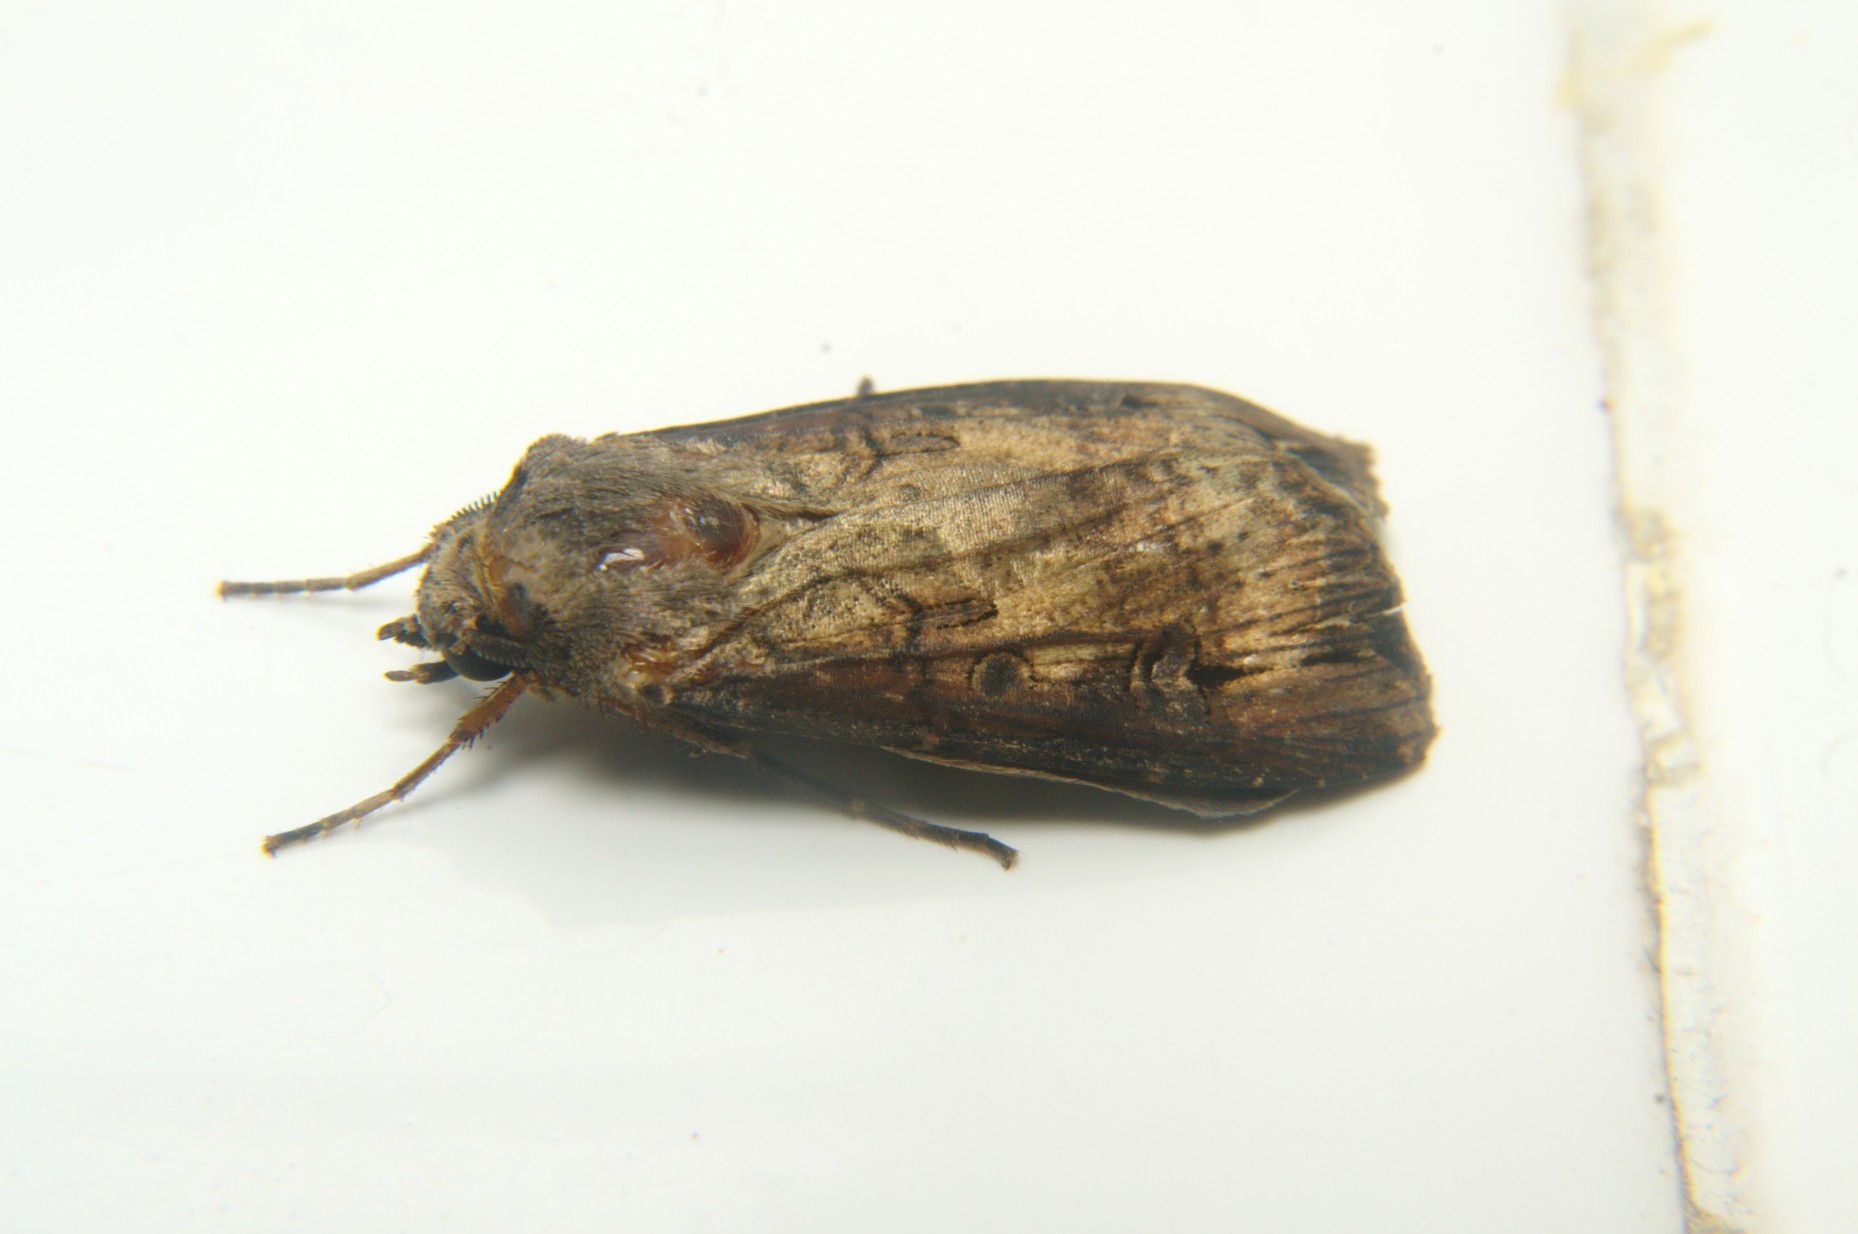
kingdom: Animalia
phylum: Arthropoda
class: Insecta
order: Lepidoptera
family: Noctuidae
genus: Agrotis
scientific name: Agrotis ipsilon
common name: Dark sword-grass
